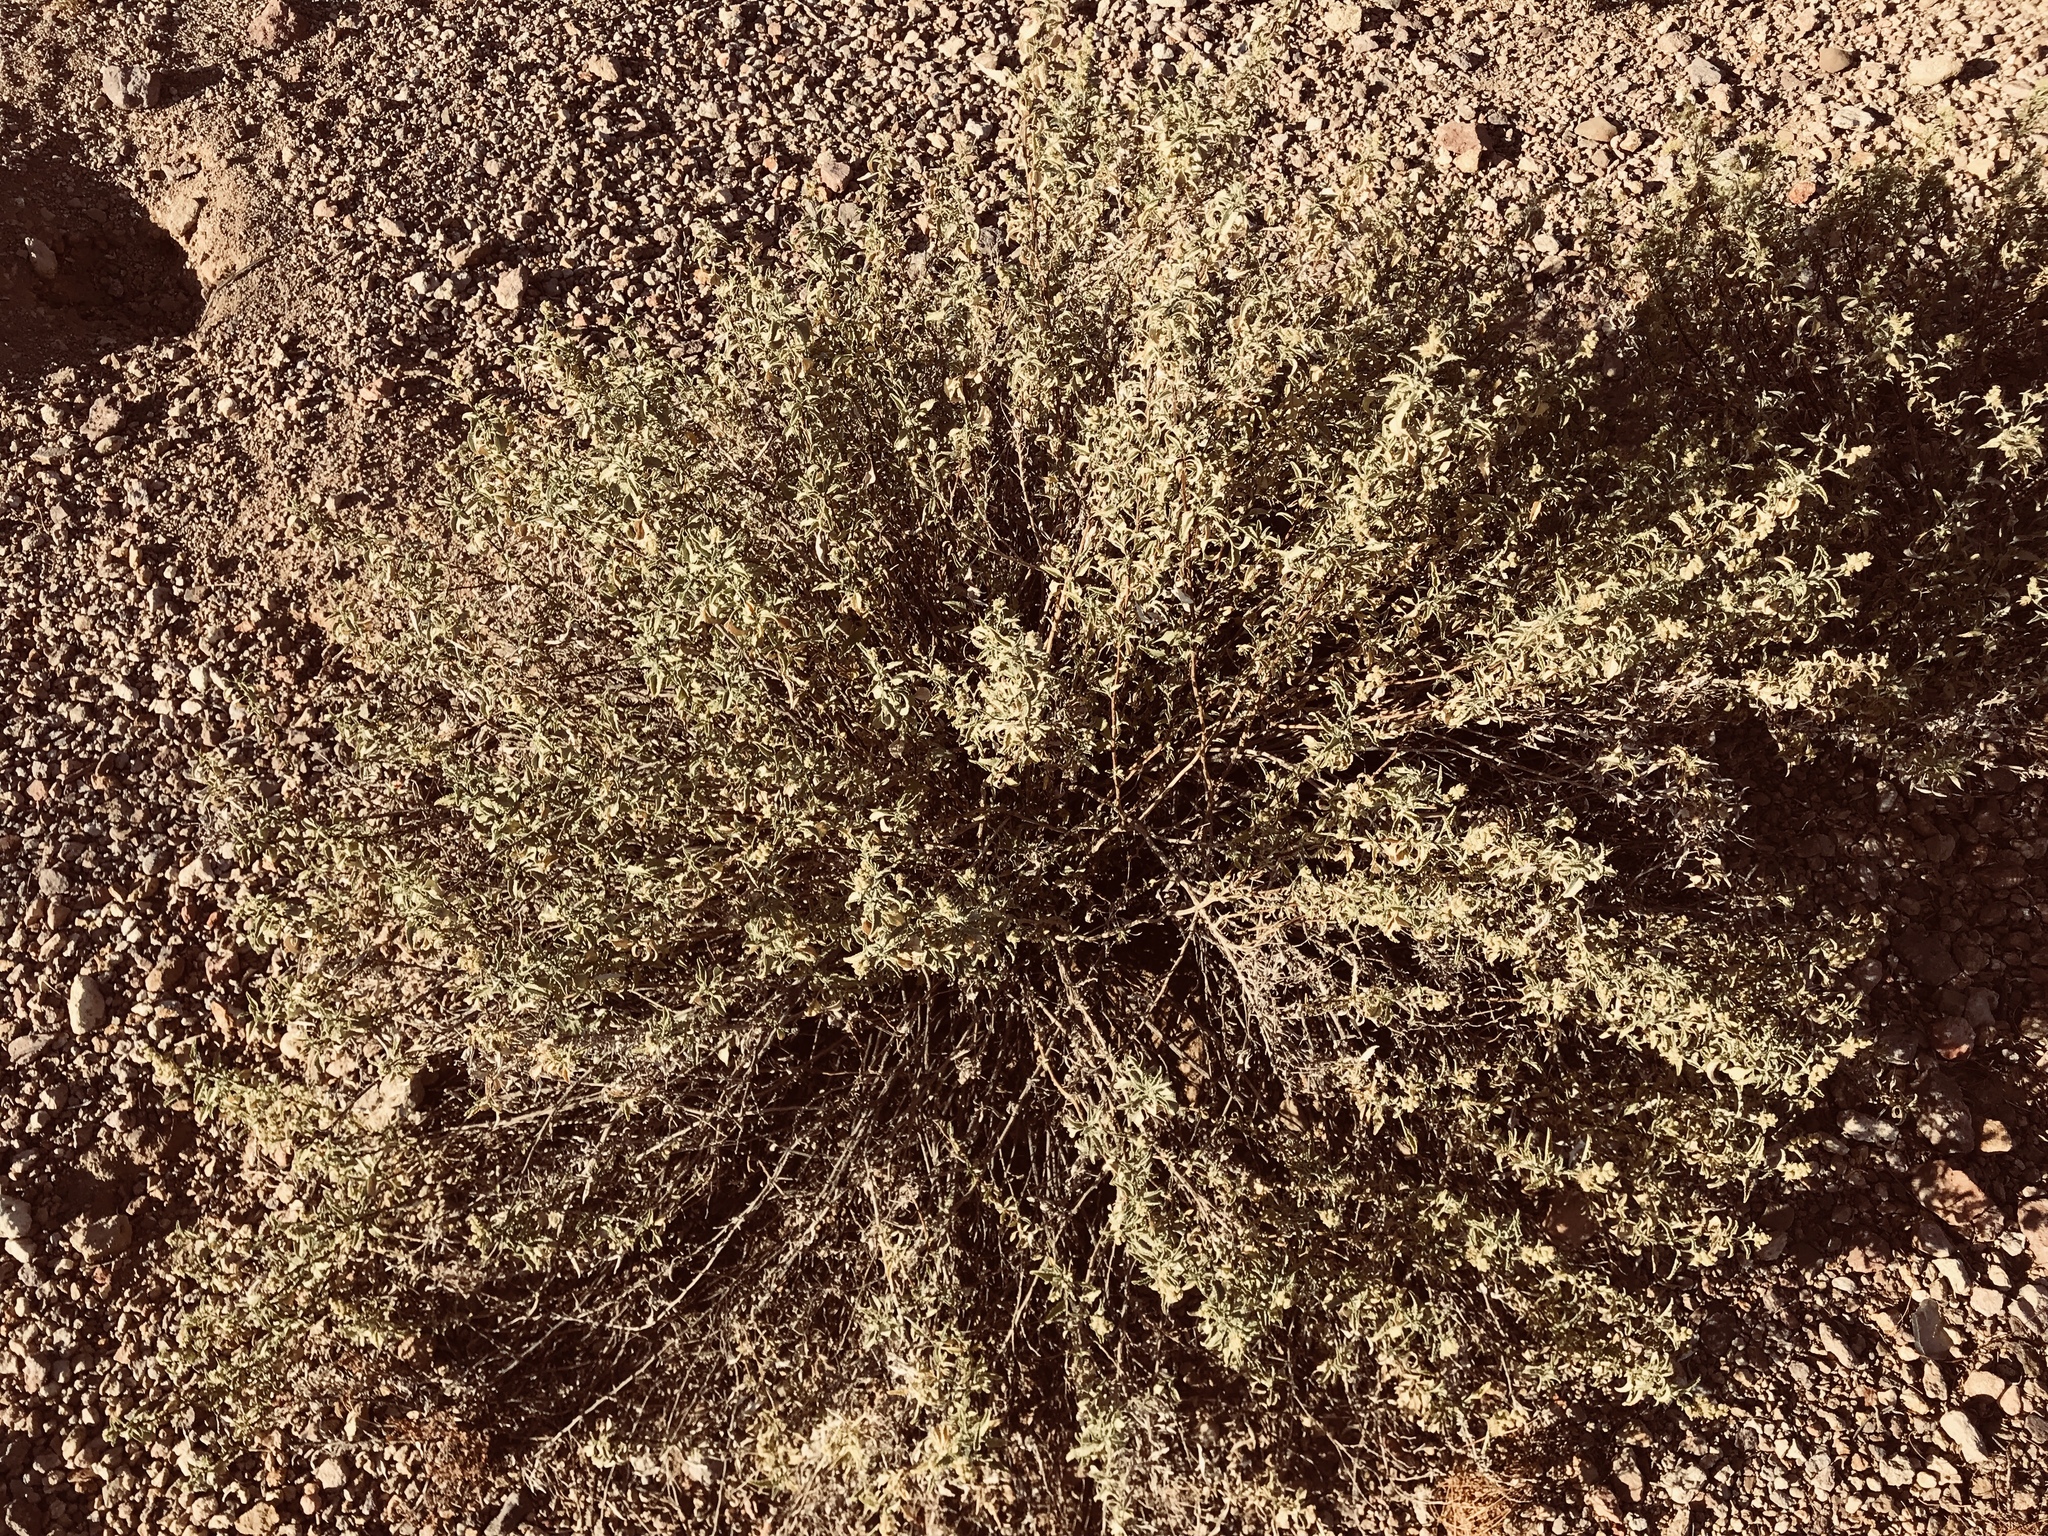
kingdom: Plantae
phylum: Tracheophyta
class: Magnoliopsida
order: Asterales
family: Asteraceae
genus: Ambrosia
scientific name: Ambrosia deltoidea
